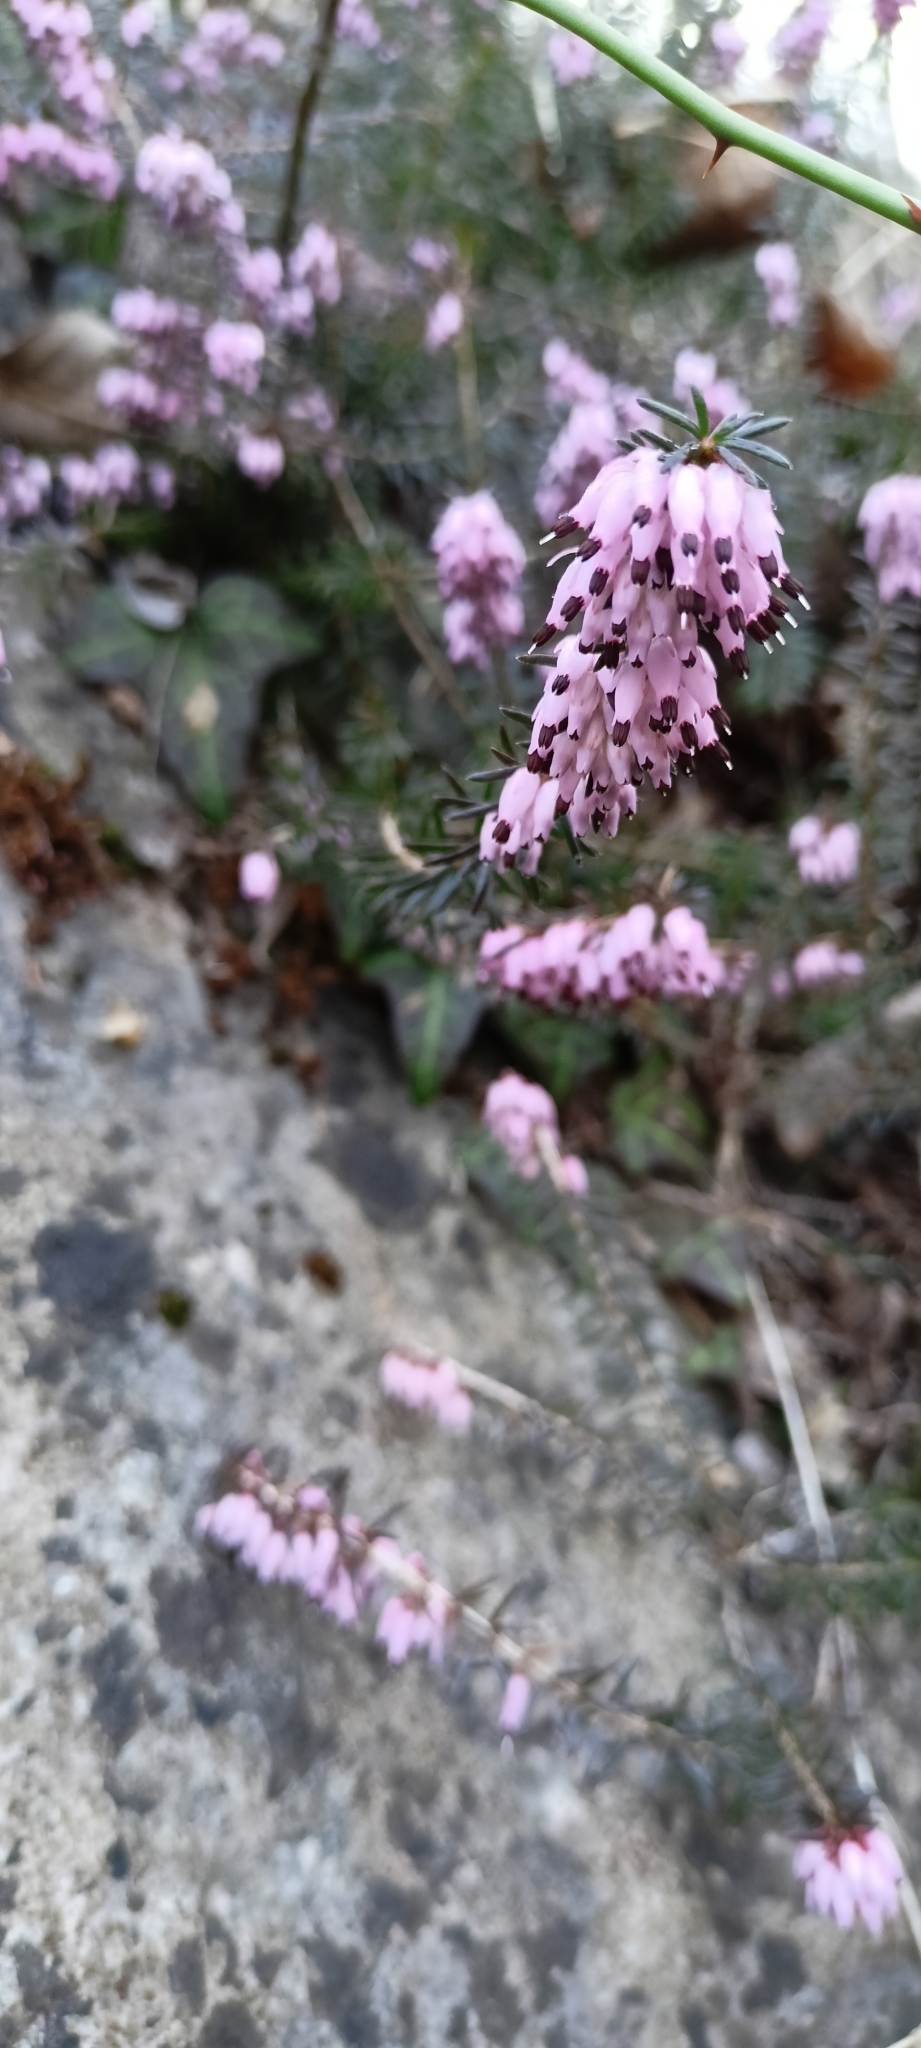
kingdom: Plantae
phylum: Tracheophyta
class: Magnoliopsida
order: Ericales
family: Ericaceae
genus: Erica
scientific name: Erica carnea
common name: Winter heath
